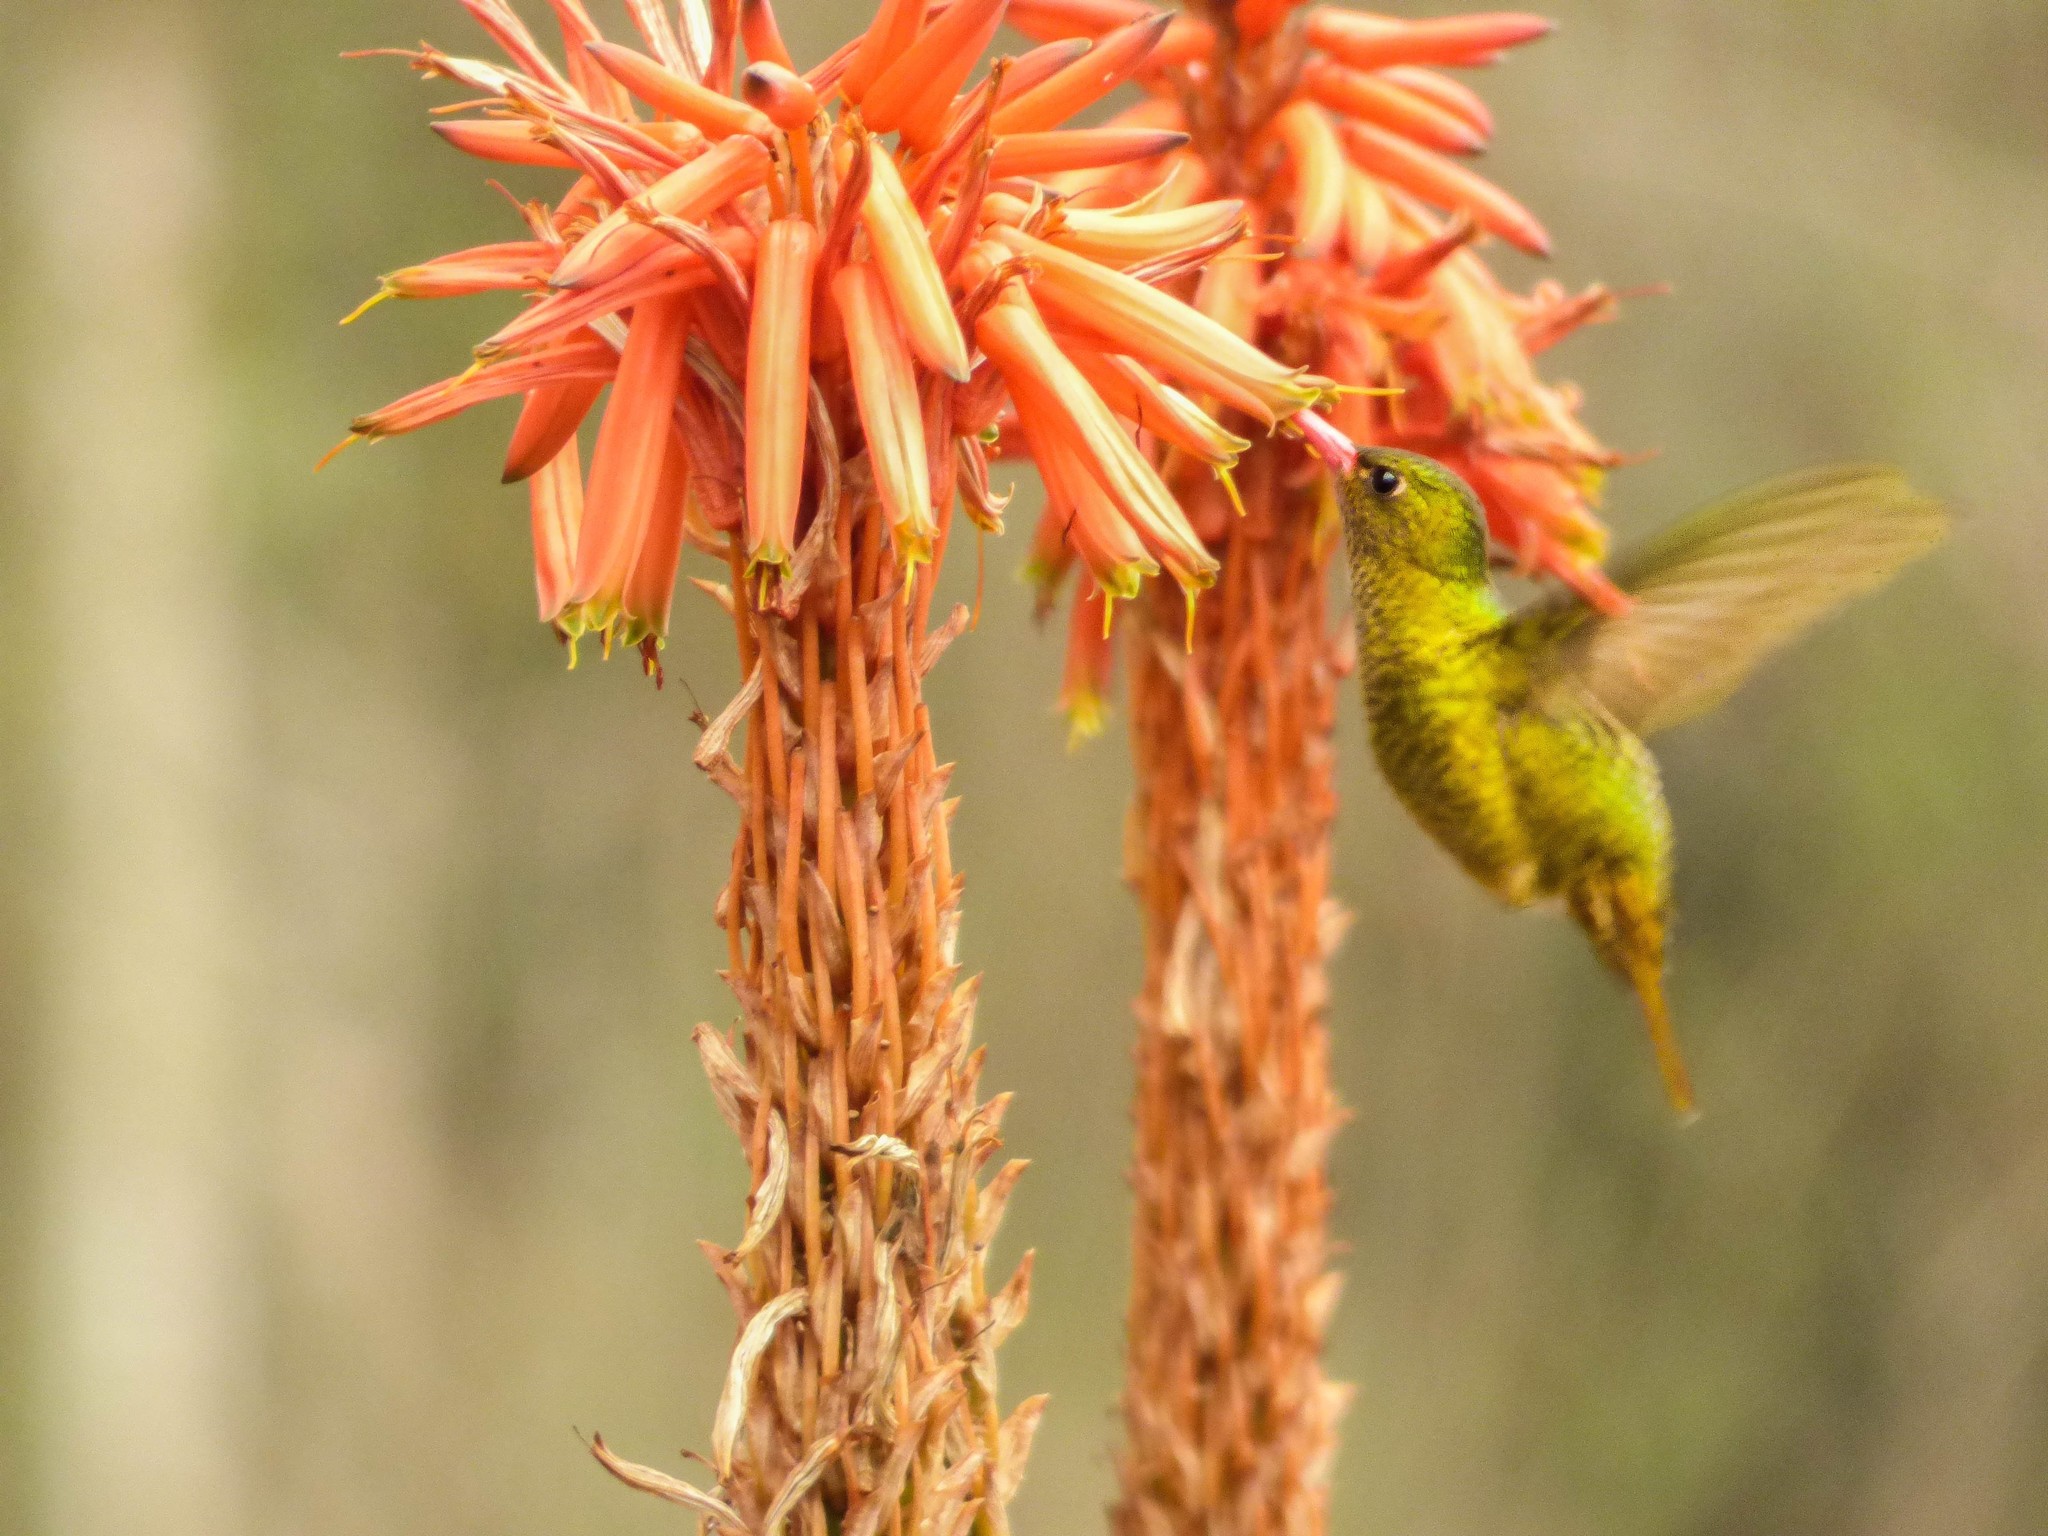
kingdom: Animalia
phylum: Chordata
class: Aves
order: Apodiformes
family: Trochilidae
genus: Hylocharis
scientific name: Hylocharis chrysura
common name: Gilded sapphire
